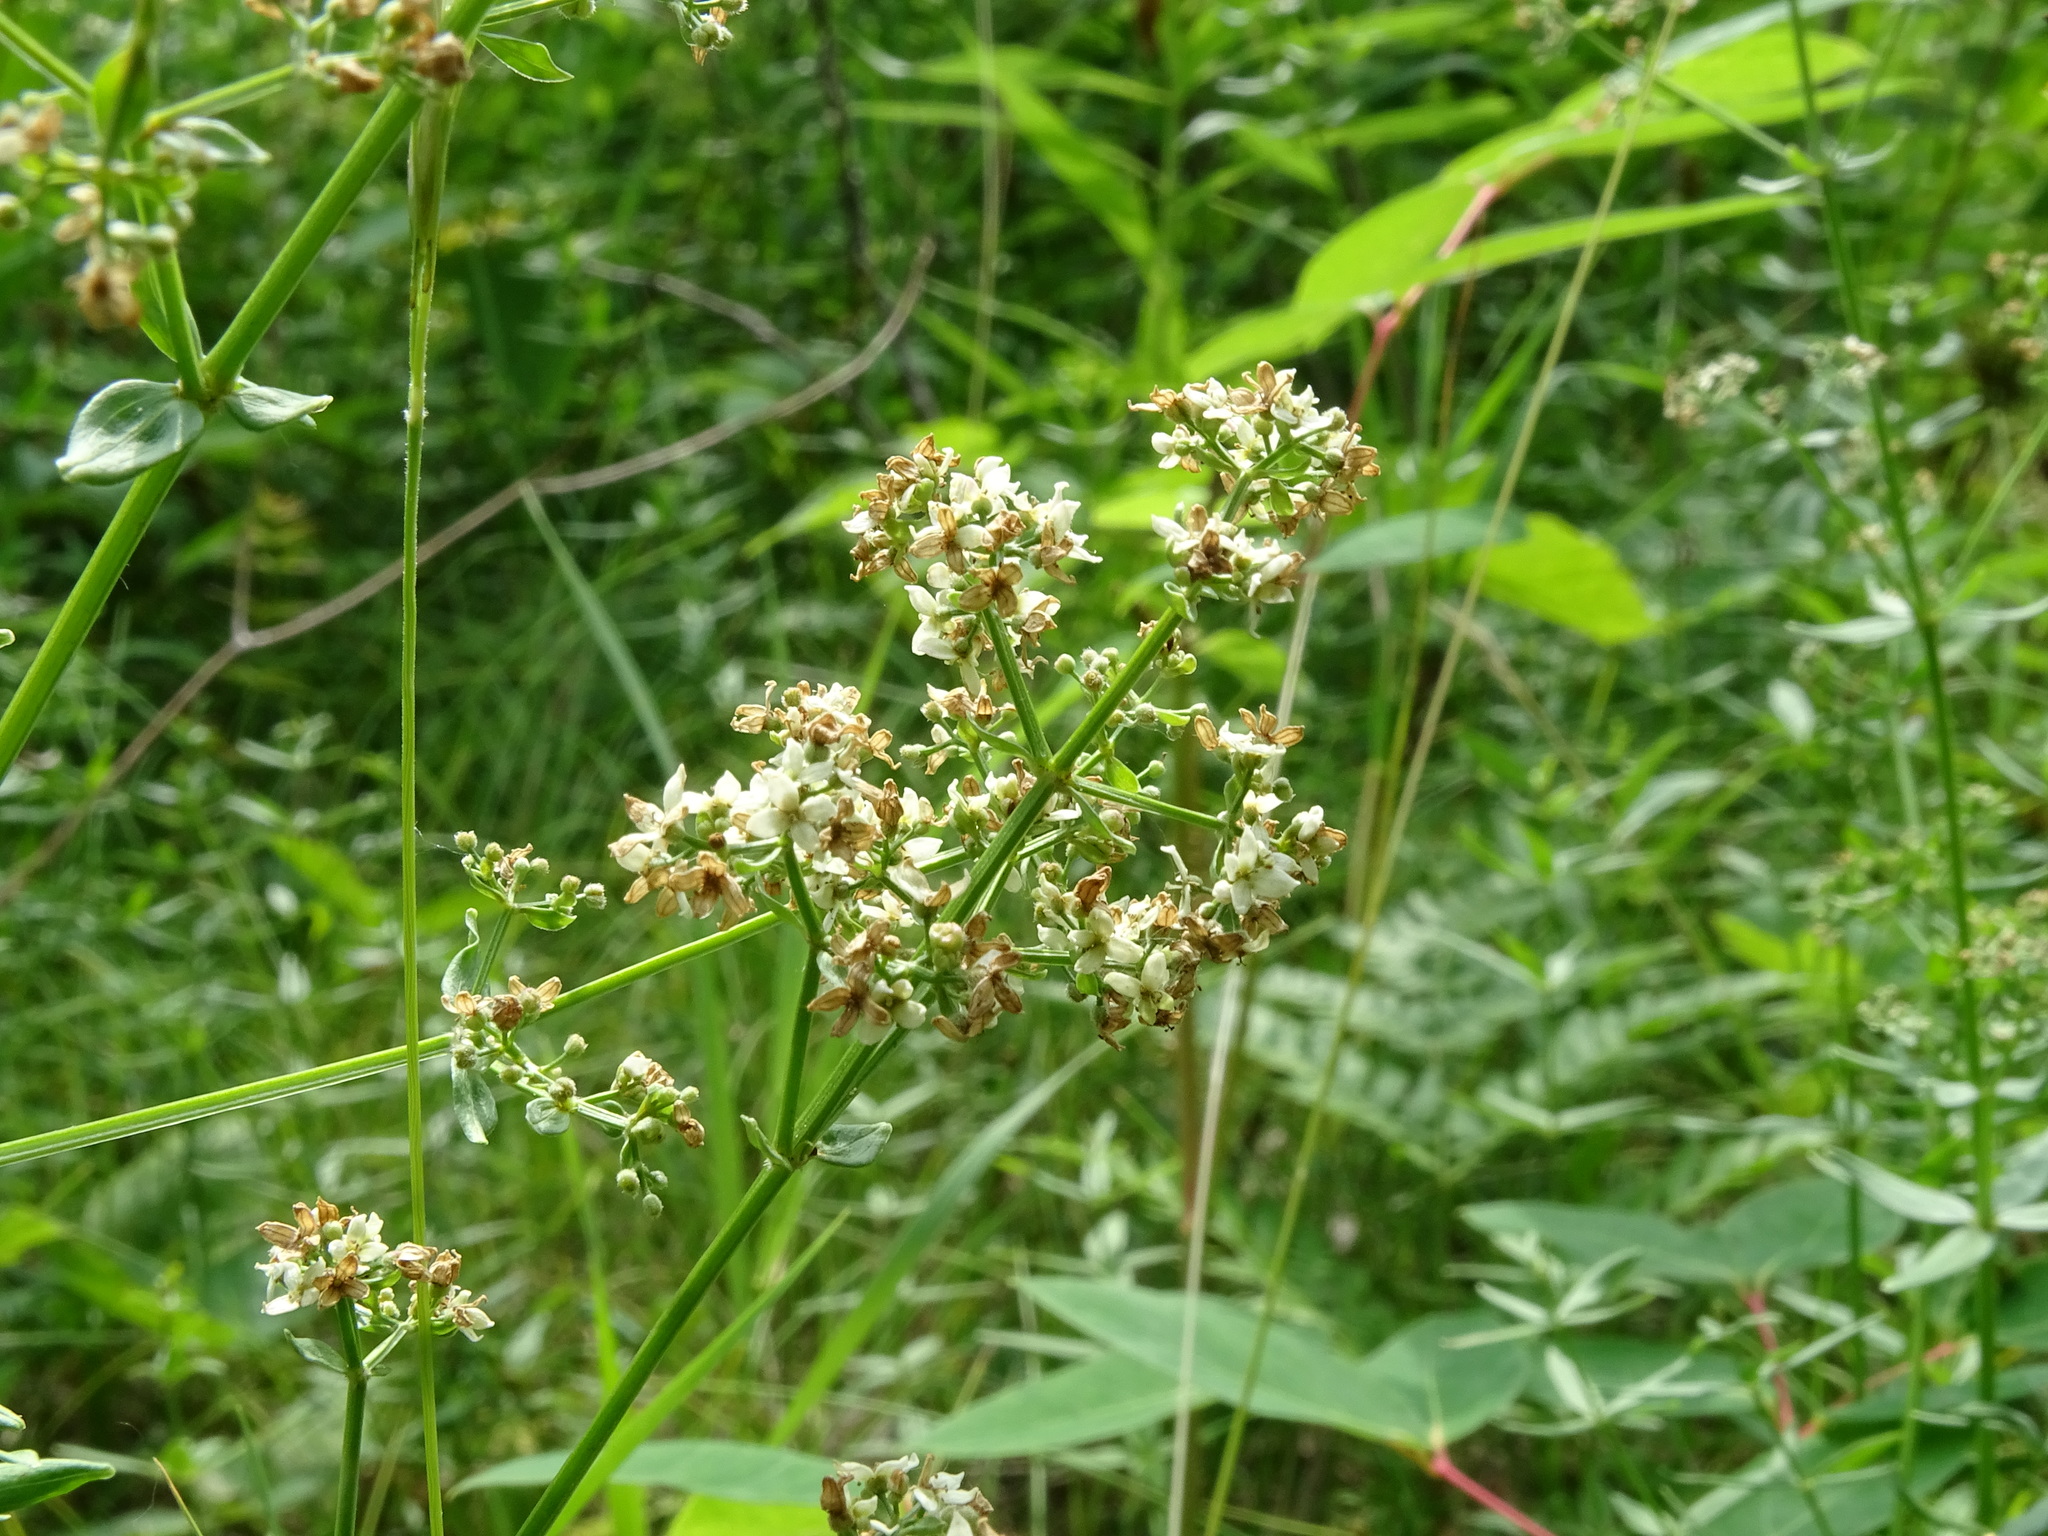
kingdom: Plantae
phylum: Tracheophyta
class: Magnoliopsida
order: Gentianales
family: Rubiaceae
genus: Galium
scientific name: Galium boreale
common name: Northern bedstraw
